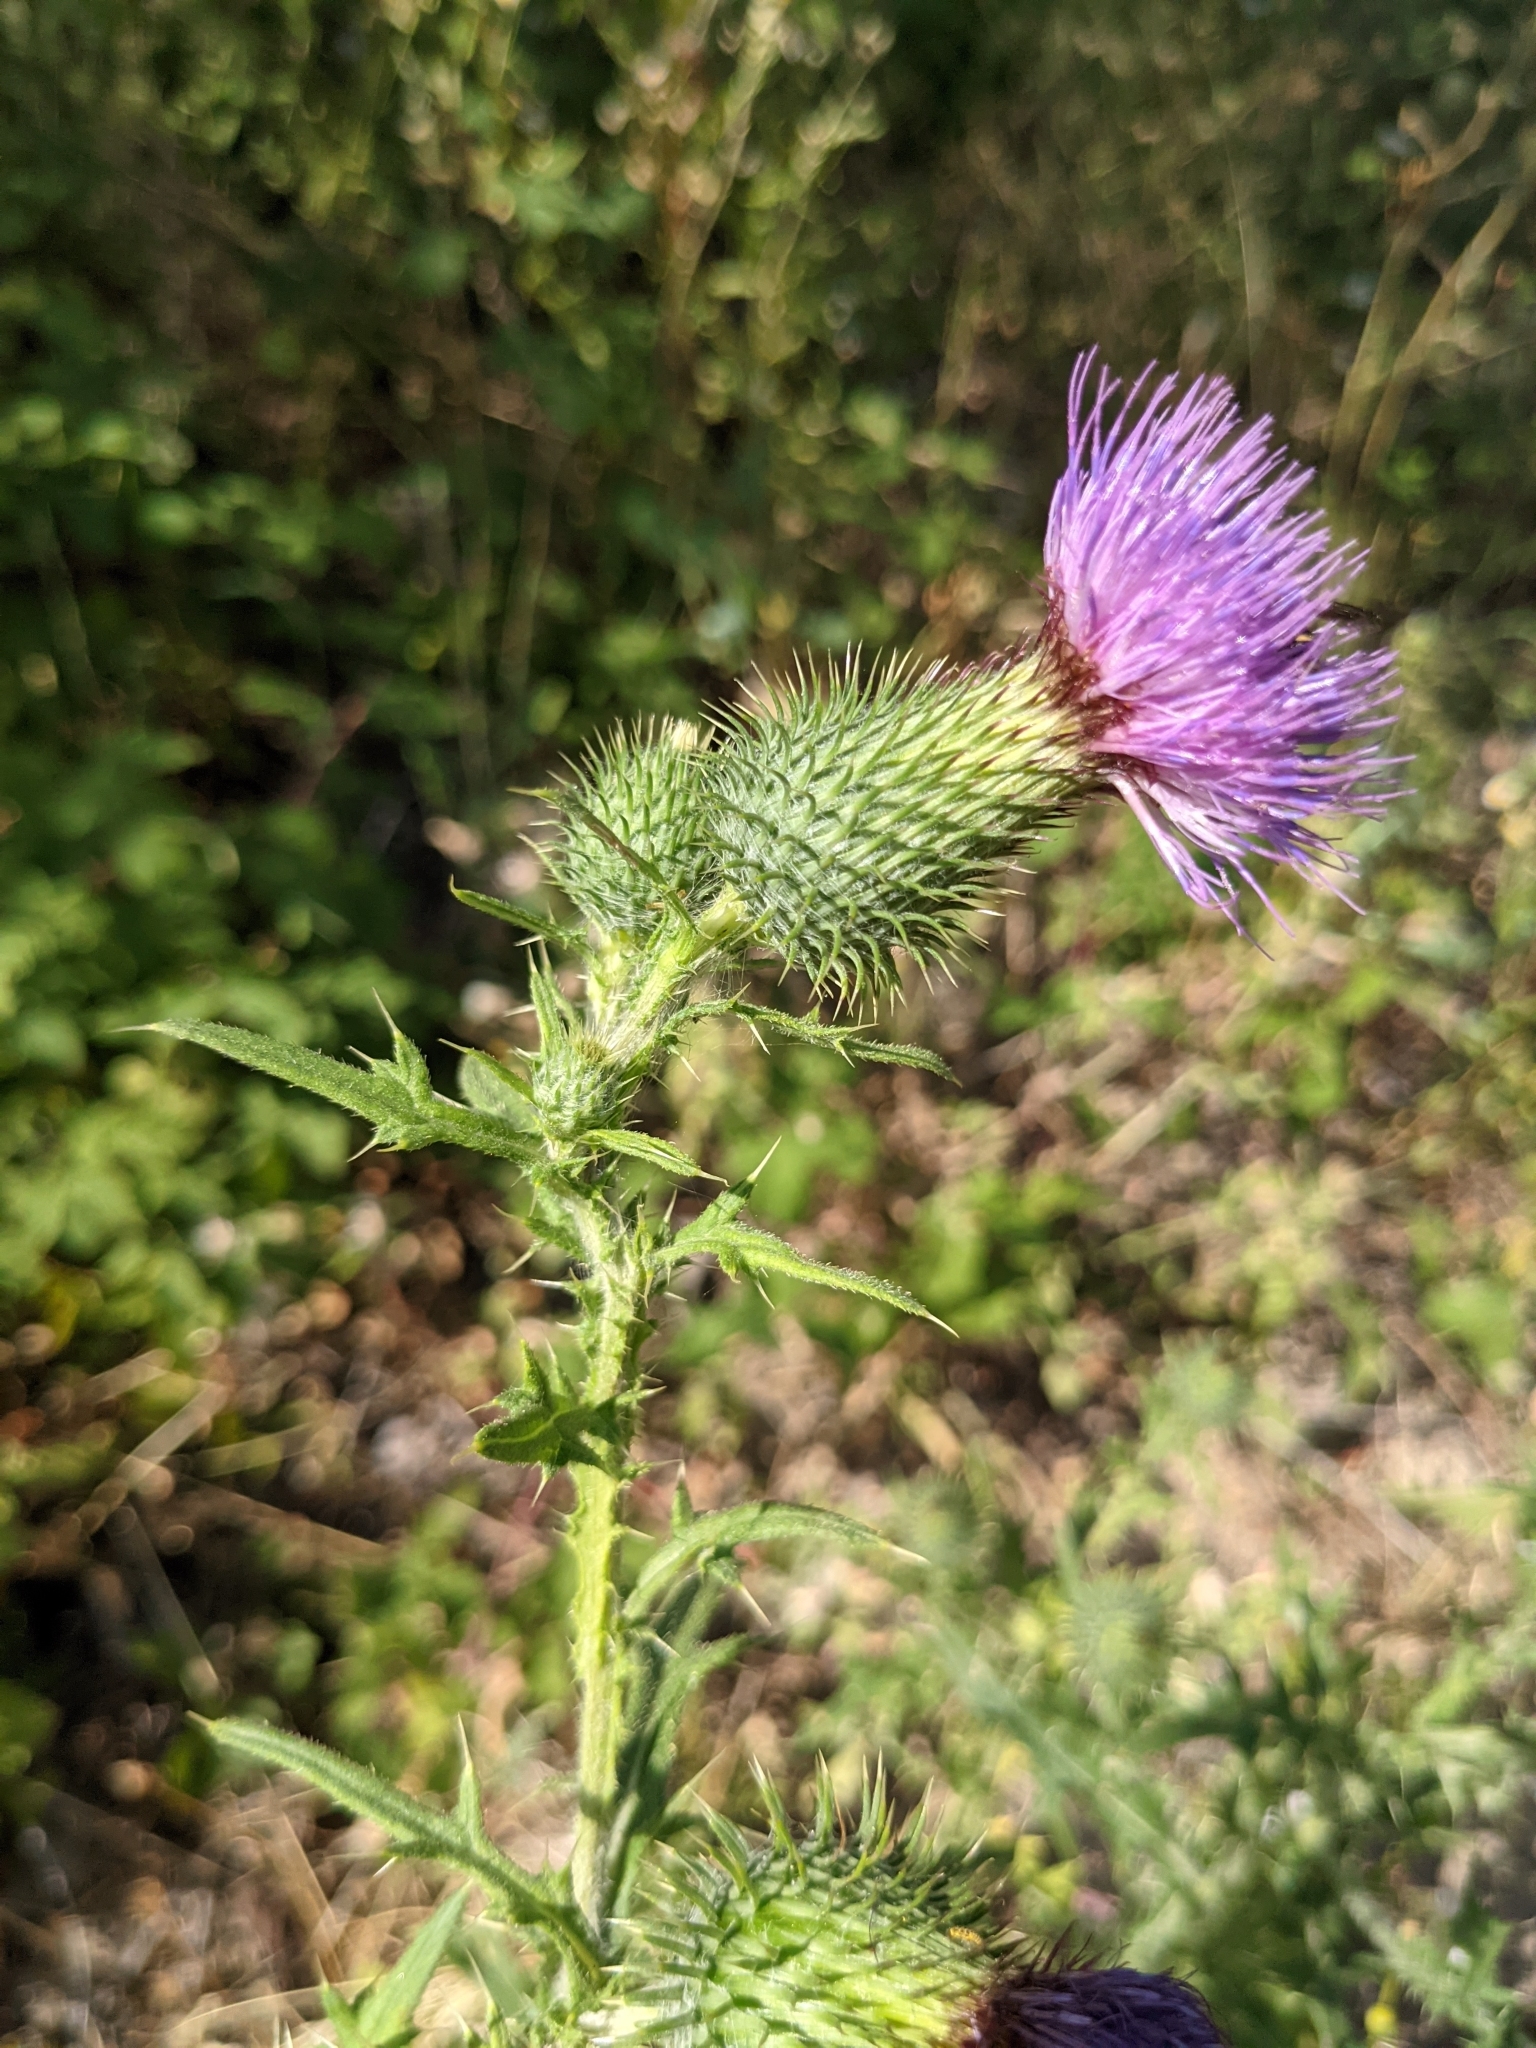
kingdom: Plantae
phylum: Tracheophyta
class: Magnoliopsida
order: Asterales
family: Asteraceae
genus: Cirsium
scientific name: Cirsium vulgare
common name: Bull thistle
